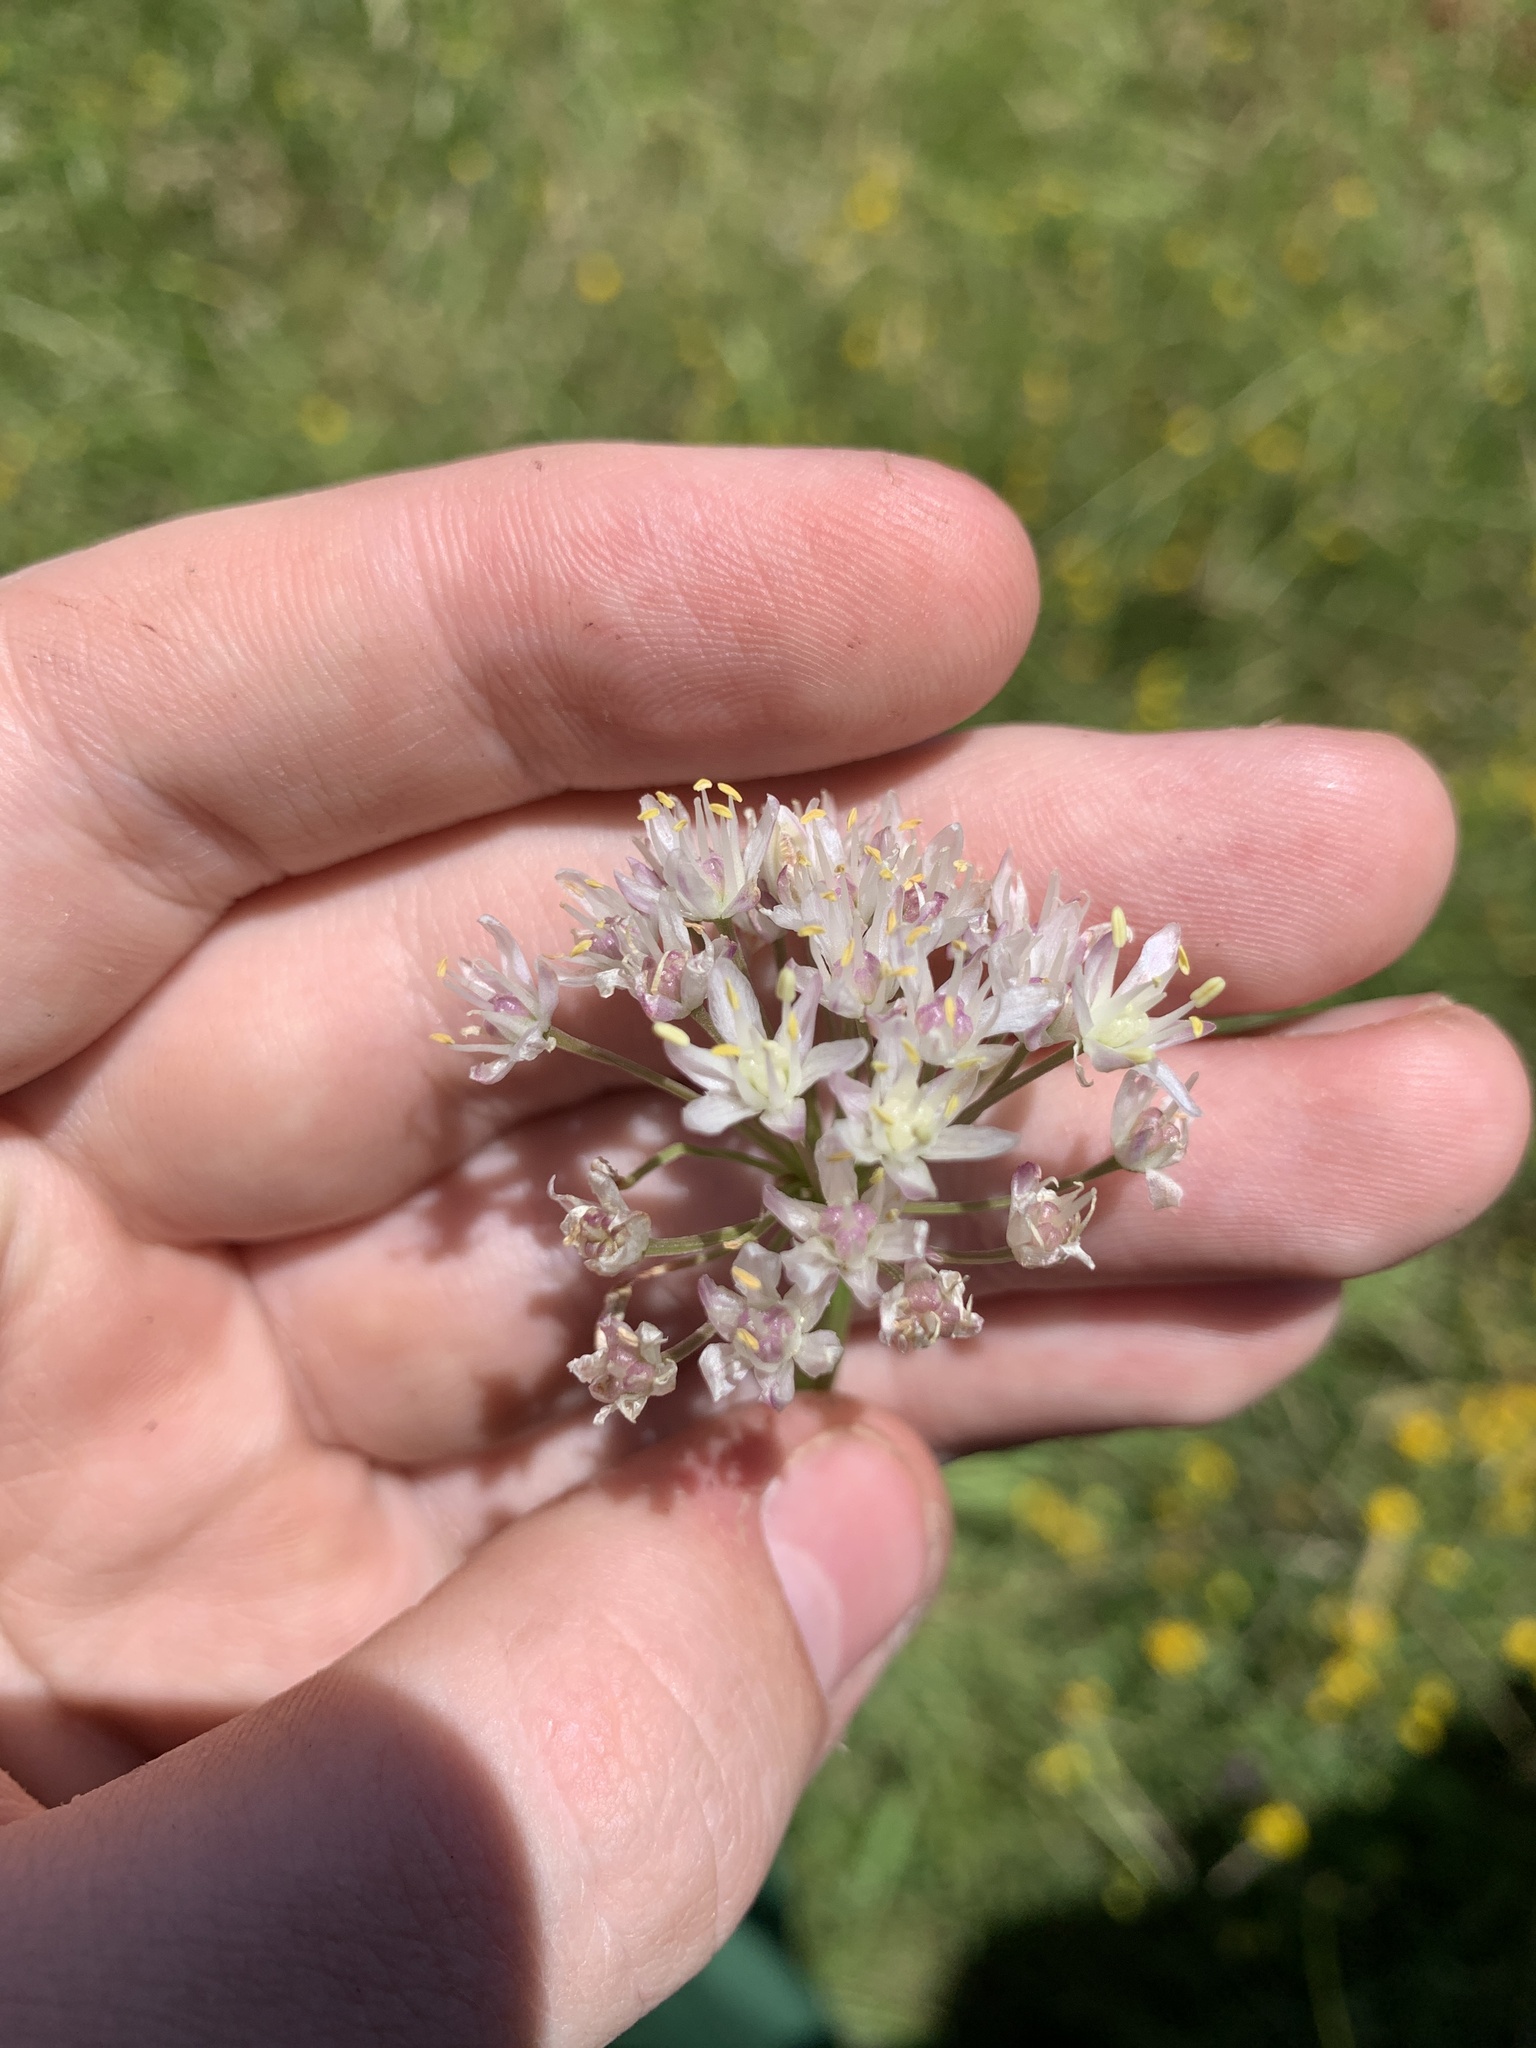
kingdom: Plantae
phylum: Tracheophyta
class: Liliopsida
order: Asparagales
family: Amaryllidaceae
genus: Allium
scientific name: Allium denudatum
